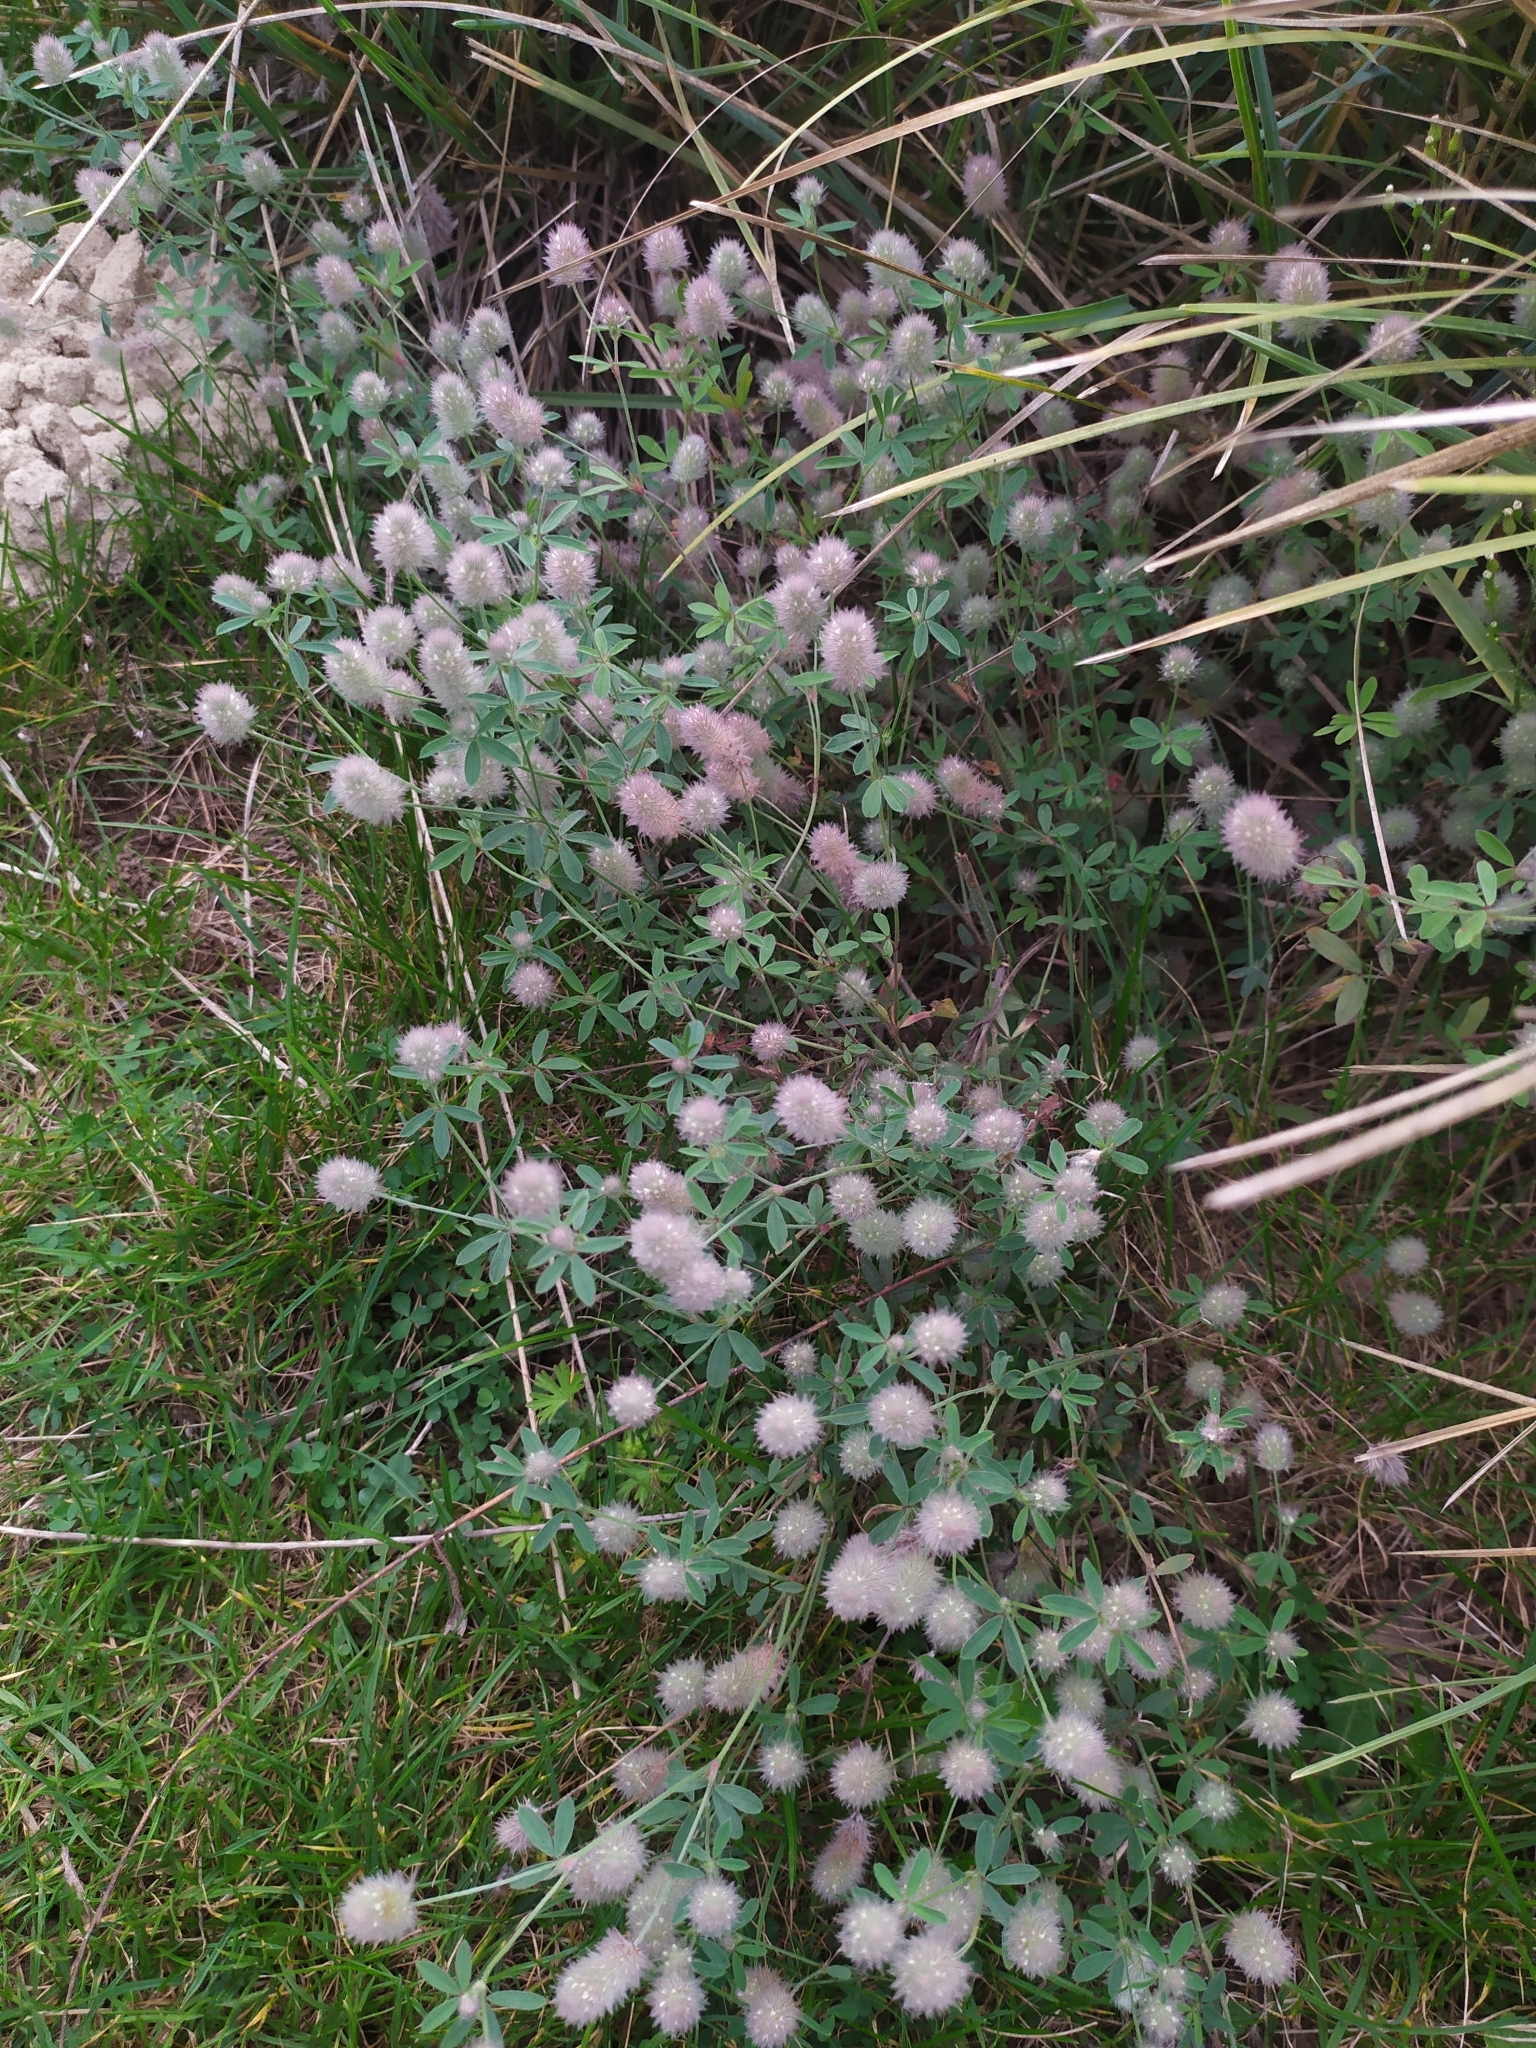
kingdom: Plantae
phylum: Tracheophyta
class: Magnoliopsida
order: Fabales
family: Fabaceae
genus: Trifolium
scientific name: Trifolium arvense
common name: Hare's-foot clover
